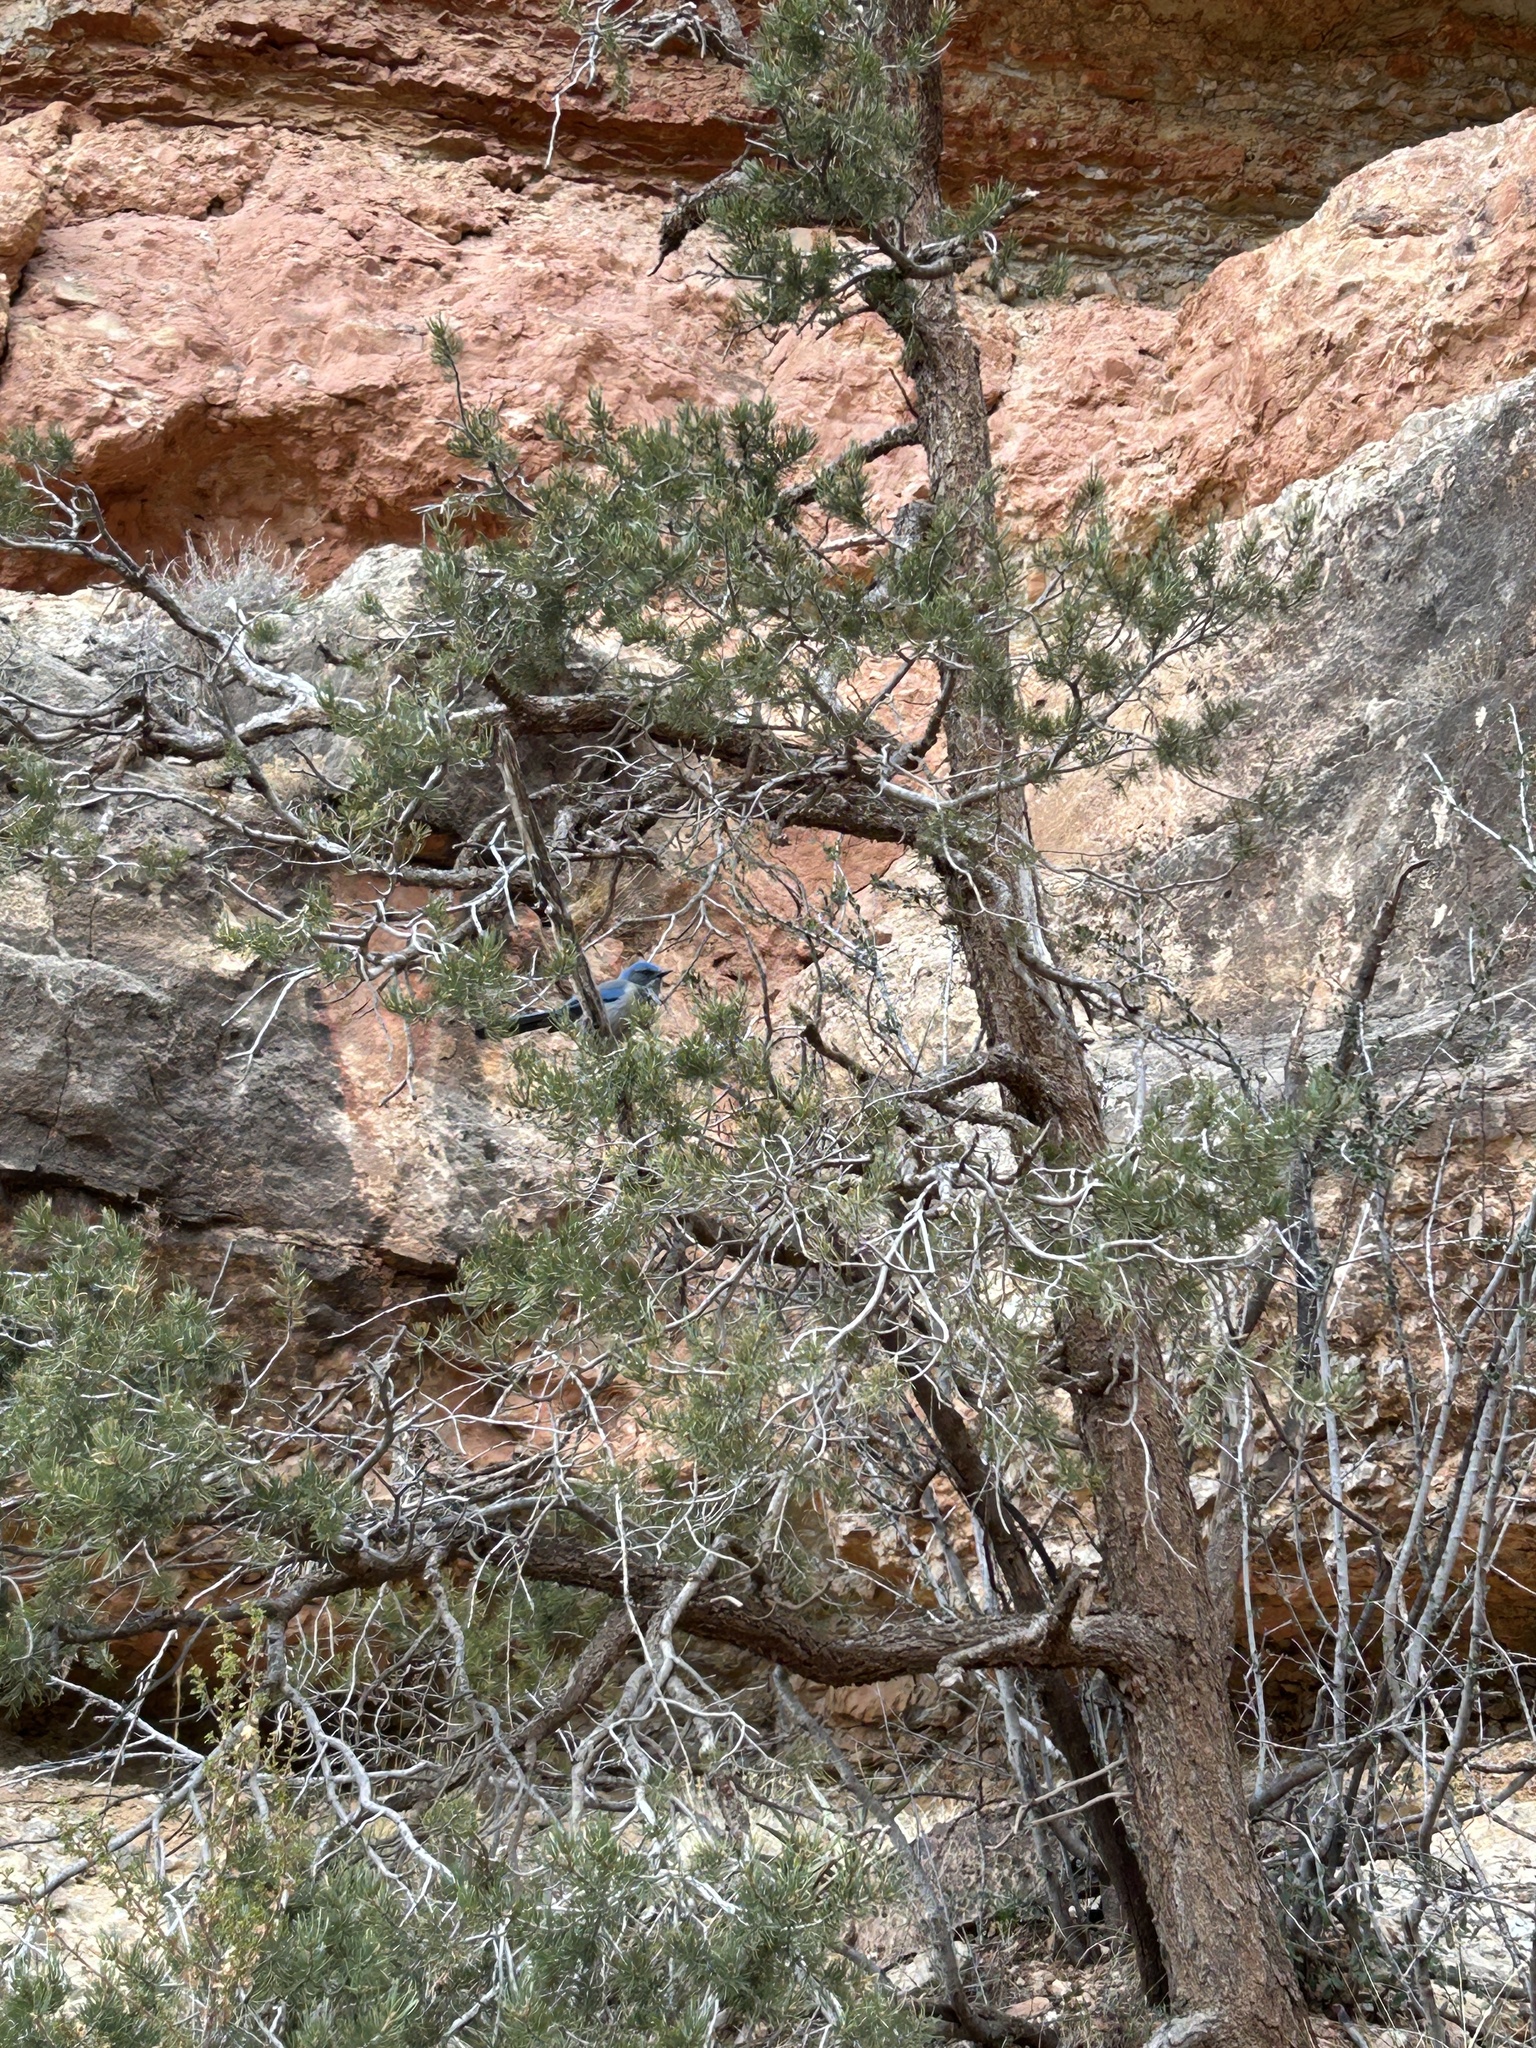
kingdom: Animalia
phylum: Chordata
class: Aves
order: Passeriformes
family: Corvidae
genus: Aphelocoma
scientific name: Aphelocoma woodhouseii
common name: Woodhouse's scrub-jay
